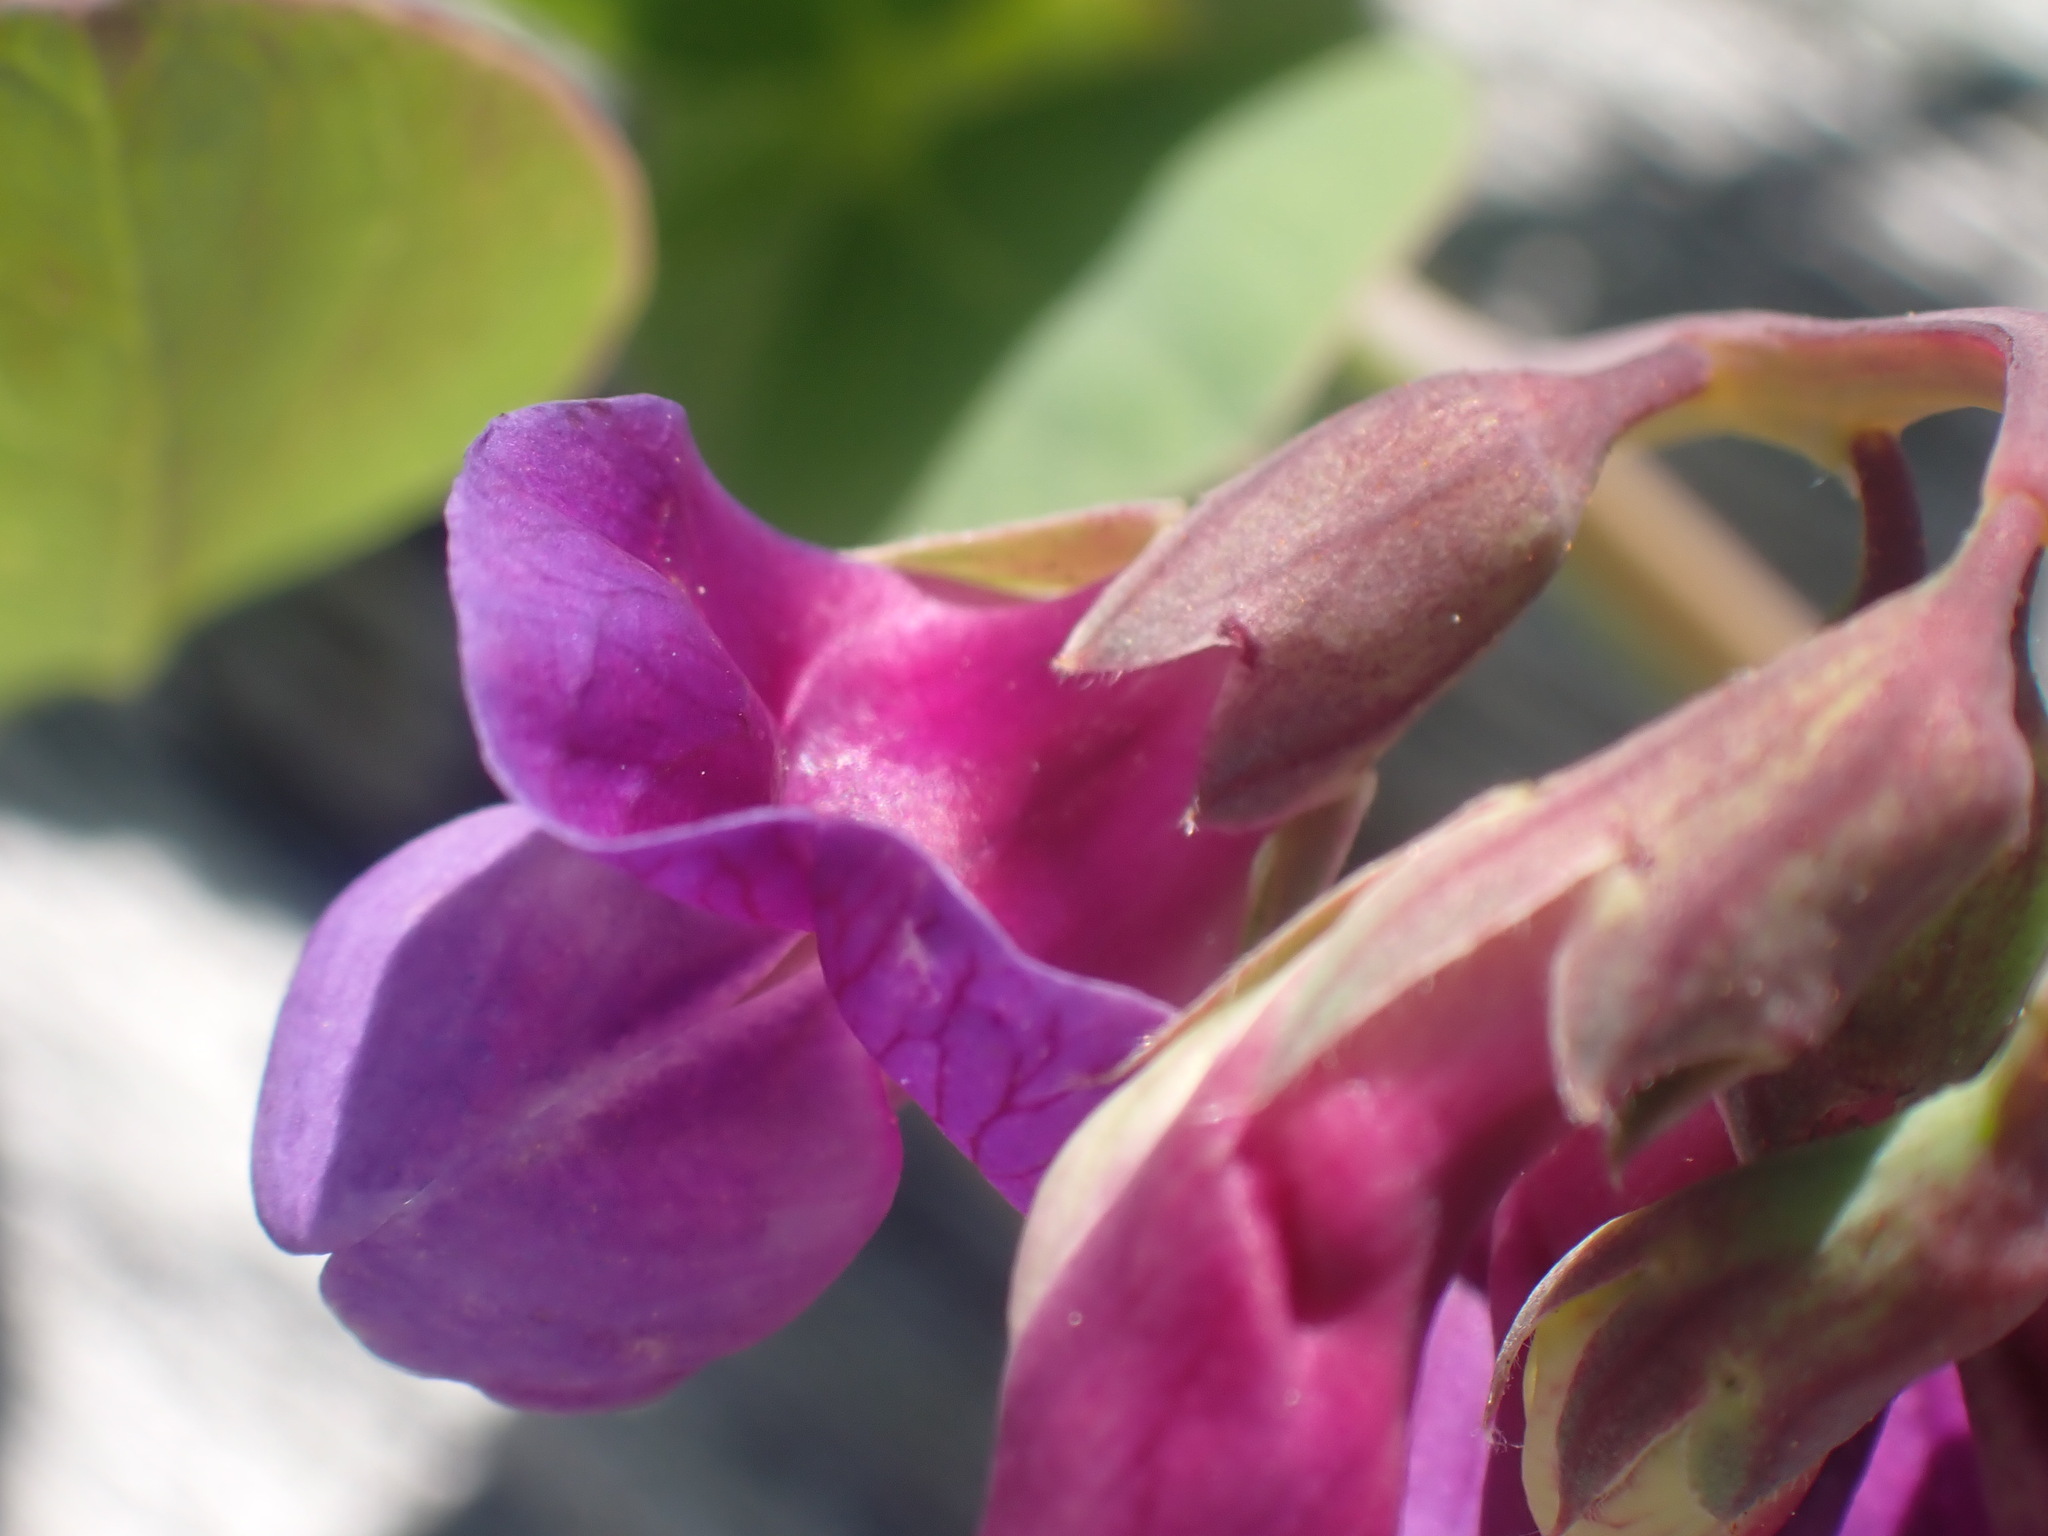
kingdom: Plantae
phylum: Tracheophyta
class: Magnoliopsida
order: Fabales
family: Fabaceae
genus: Lathyrus
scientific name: Lathyrus japonicus
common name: Sea pea
